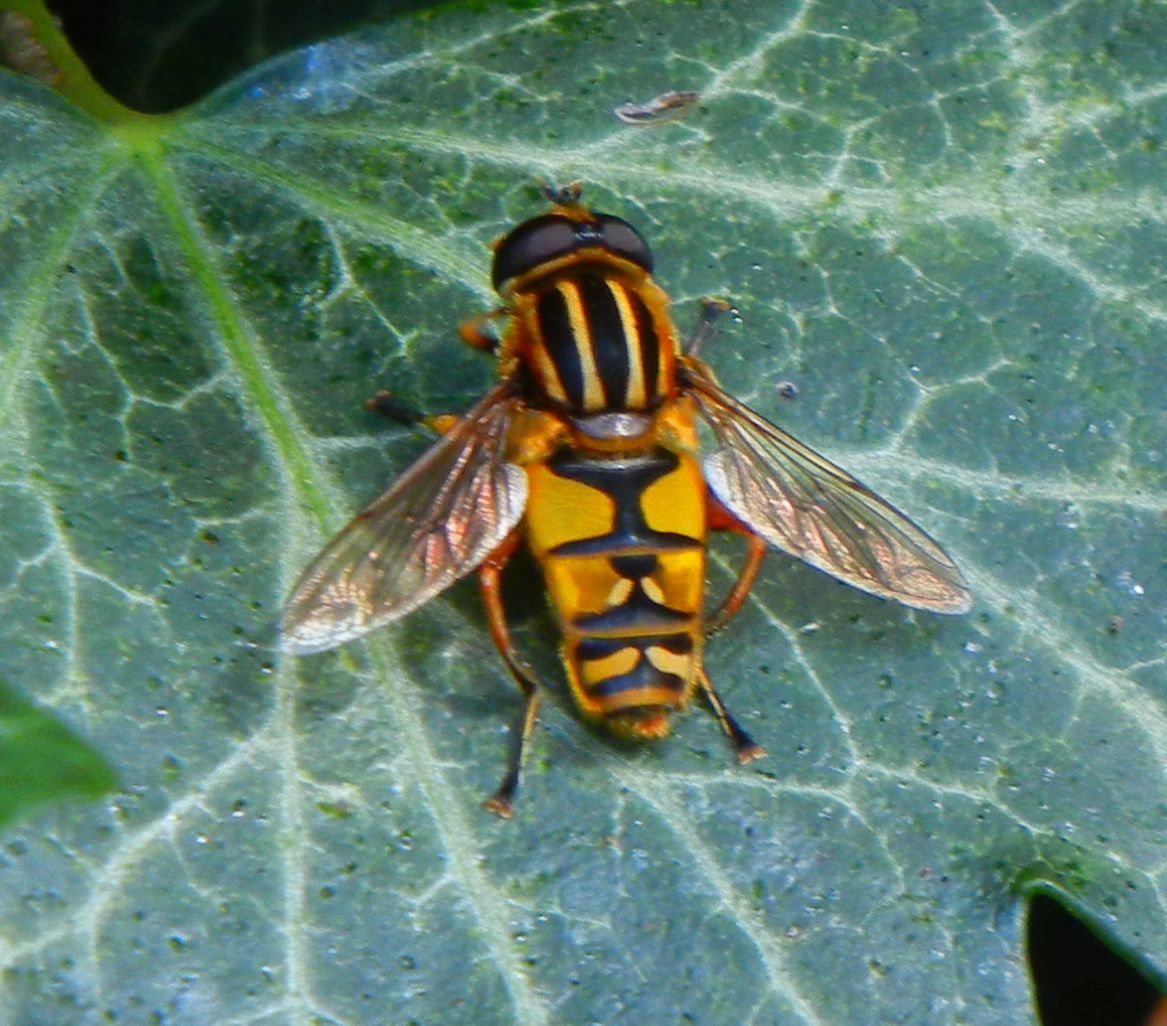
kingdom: Animalia
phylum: Arthropoda
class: Insecta
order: Diptera
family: Syrphidae
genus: Helophilus
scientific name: Helophilus pendulus
